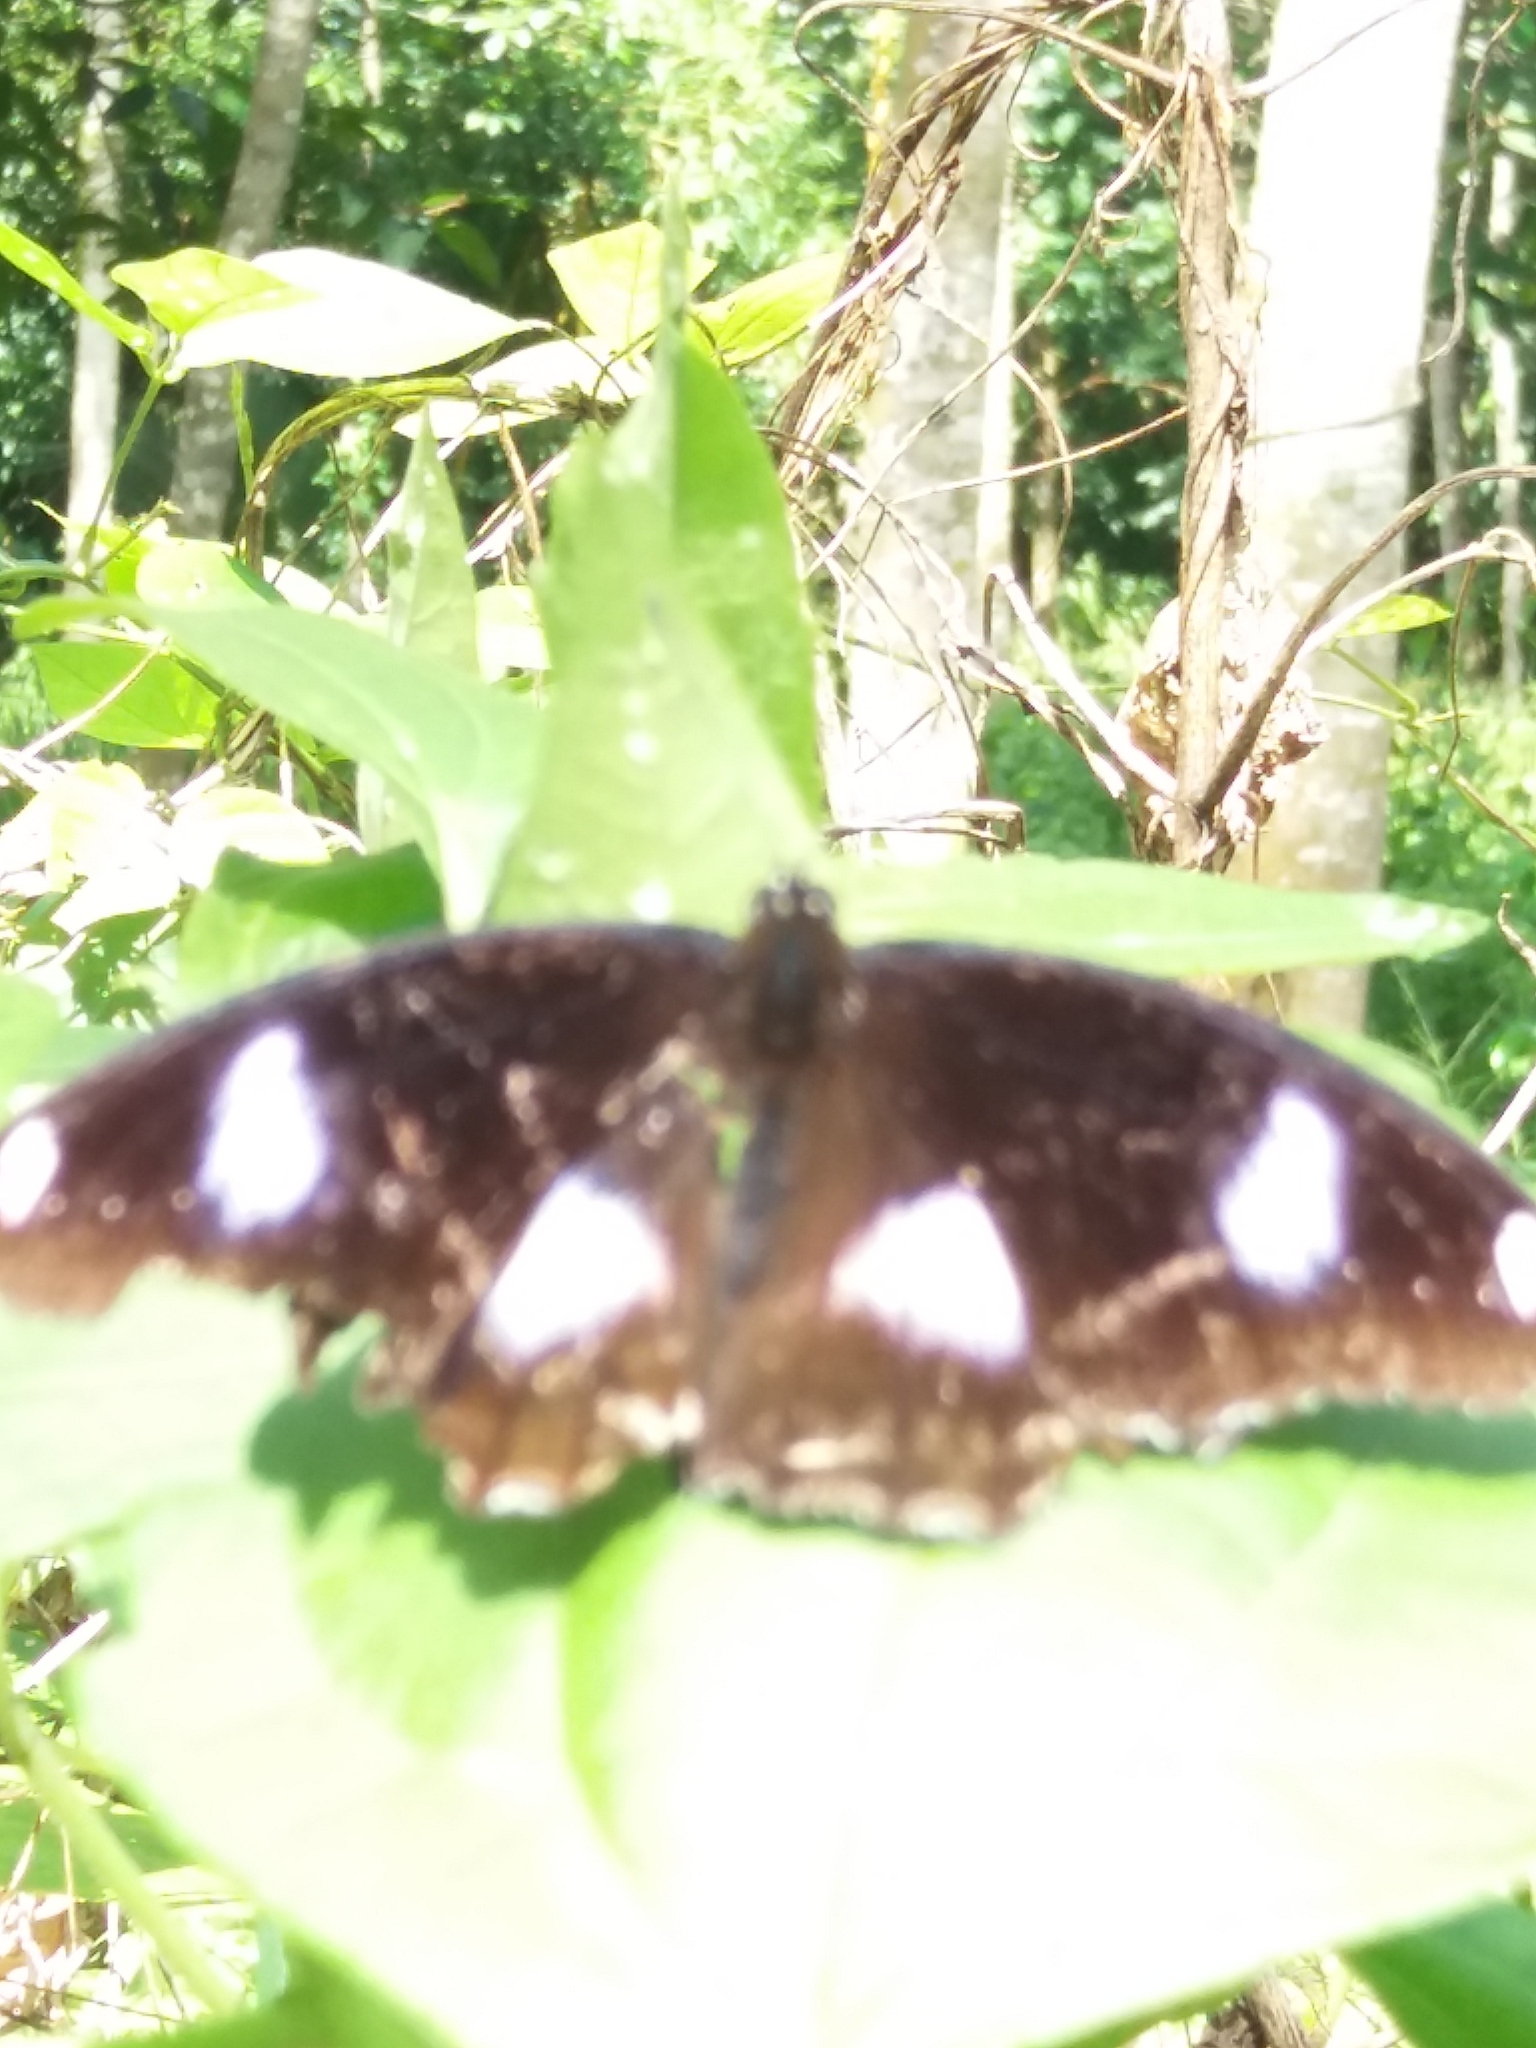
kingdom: Animalia
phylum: Arthropoda
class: Insecta
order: Lepidoptera
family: Nymphalidae
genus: Hypolimnas
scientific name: Hypolimnas bolina
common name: Great eggfly
